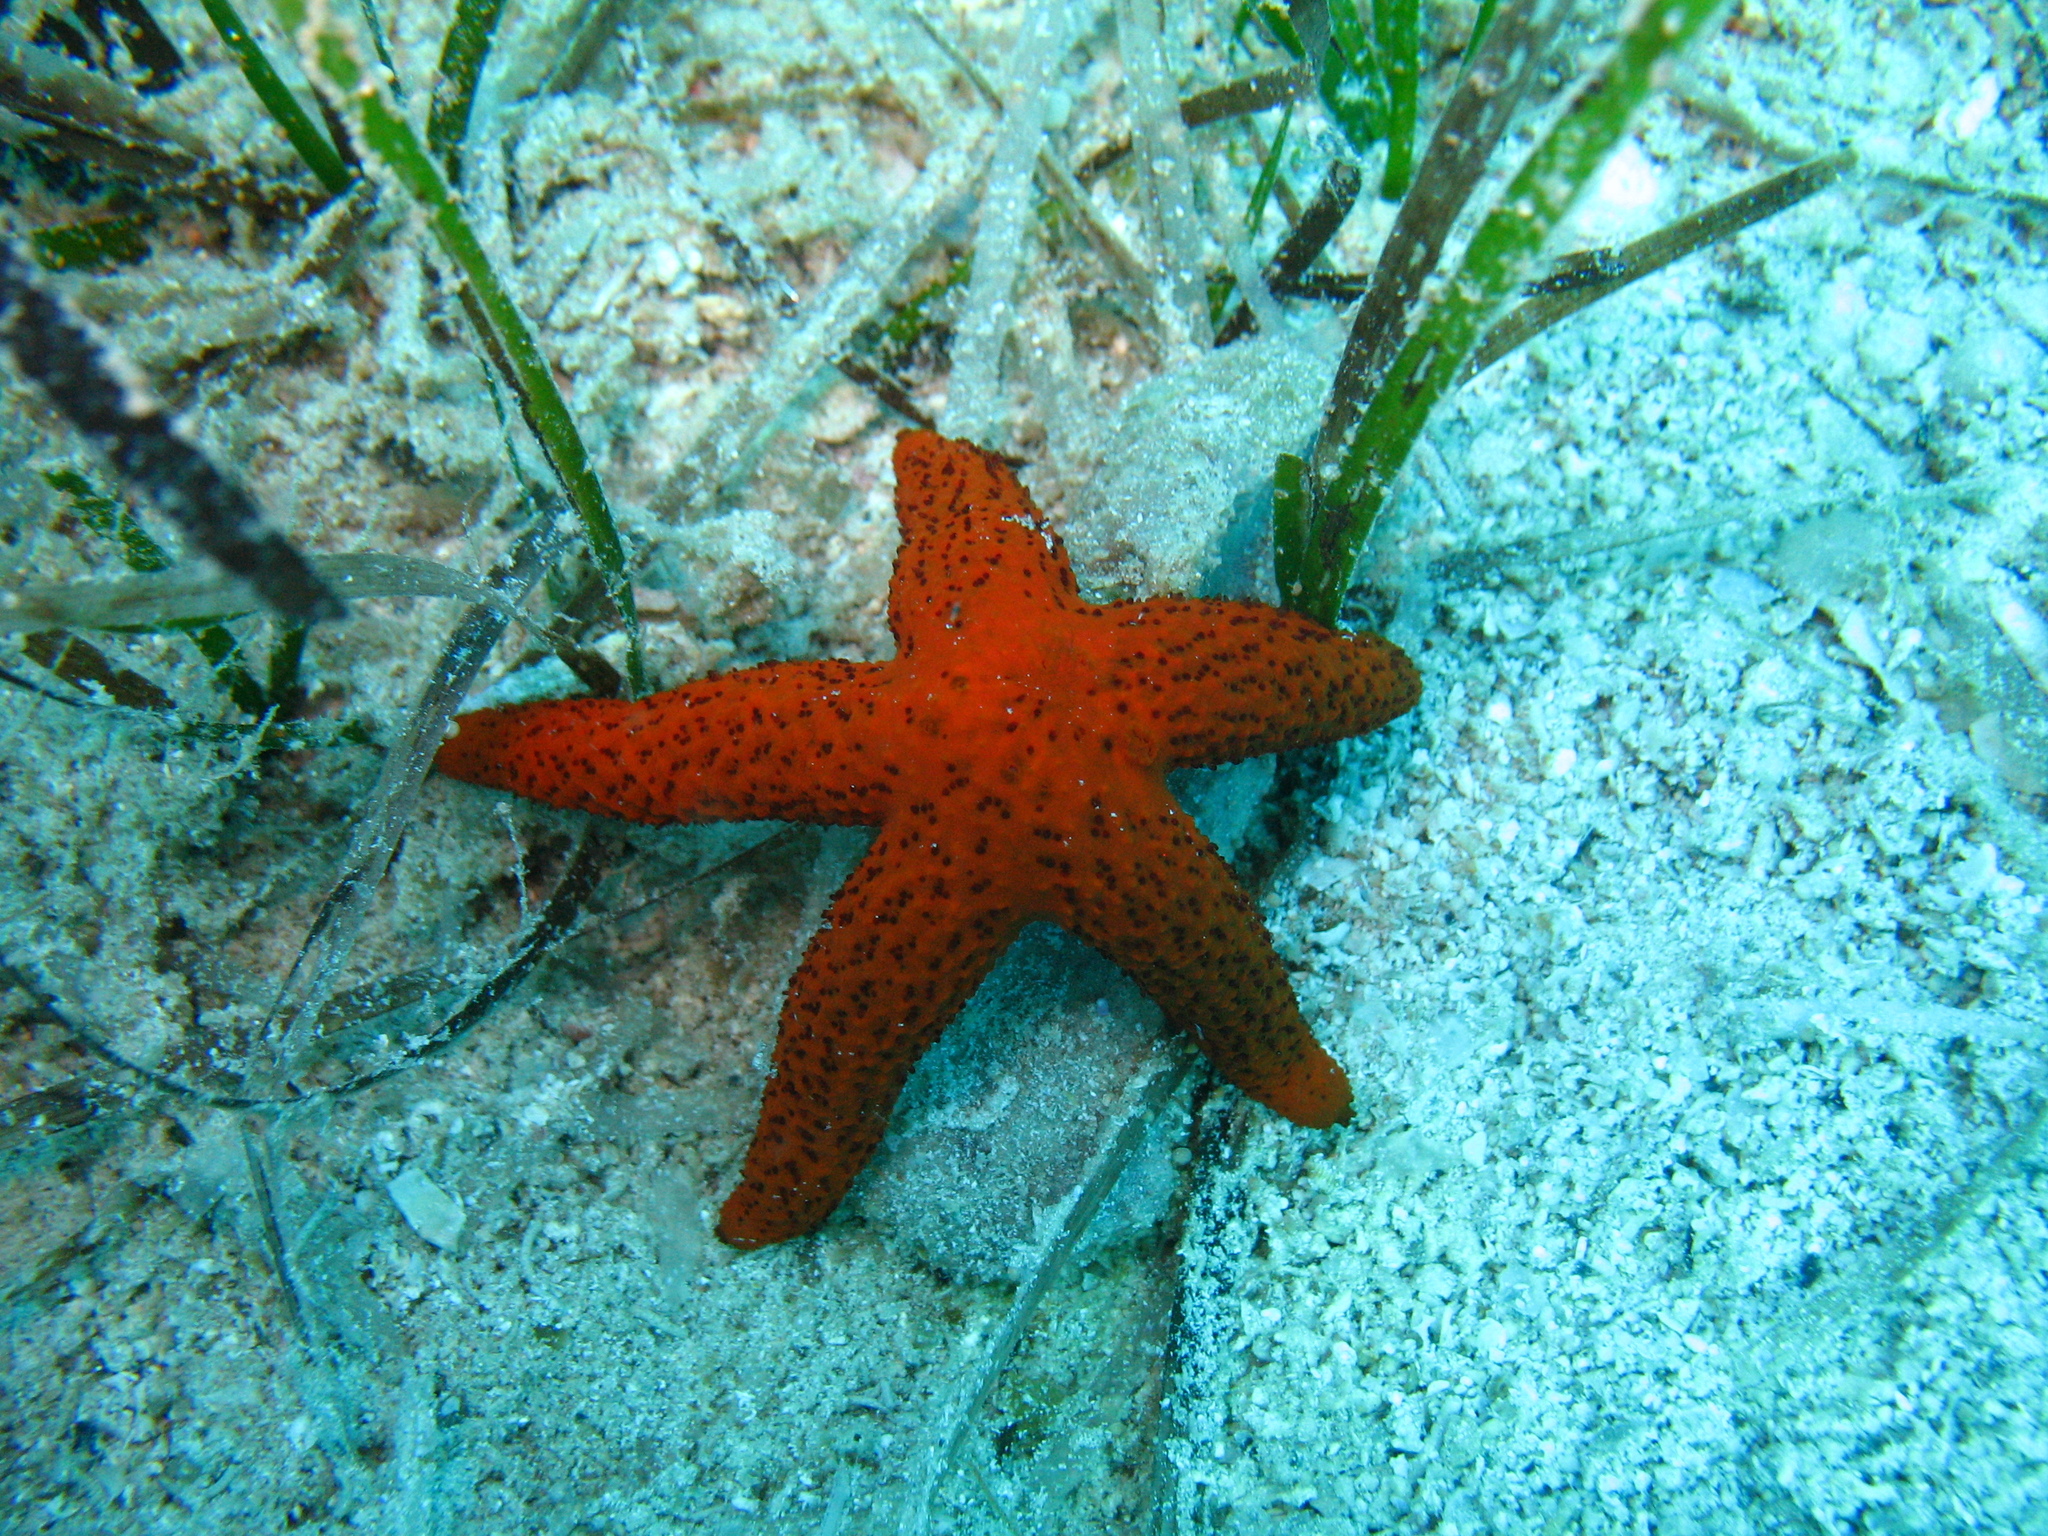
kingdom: Animalia
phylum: Echinodermata
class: Asteroidea
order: Spinulosida
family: Echinasteridae
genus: Echinaster
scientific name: Echinaster sepositus
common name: Red starfish
